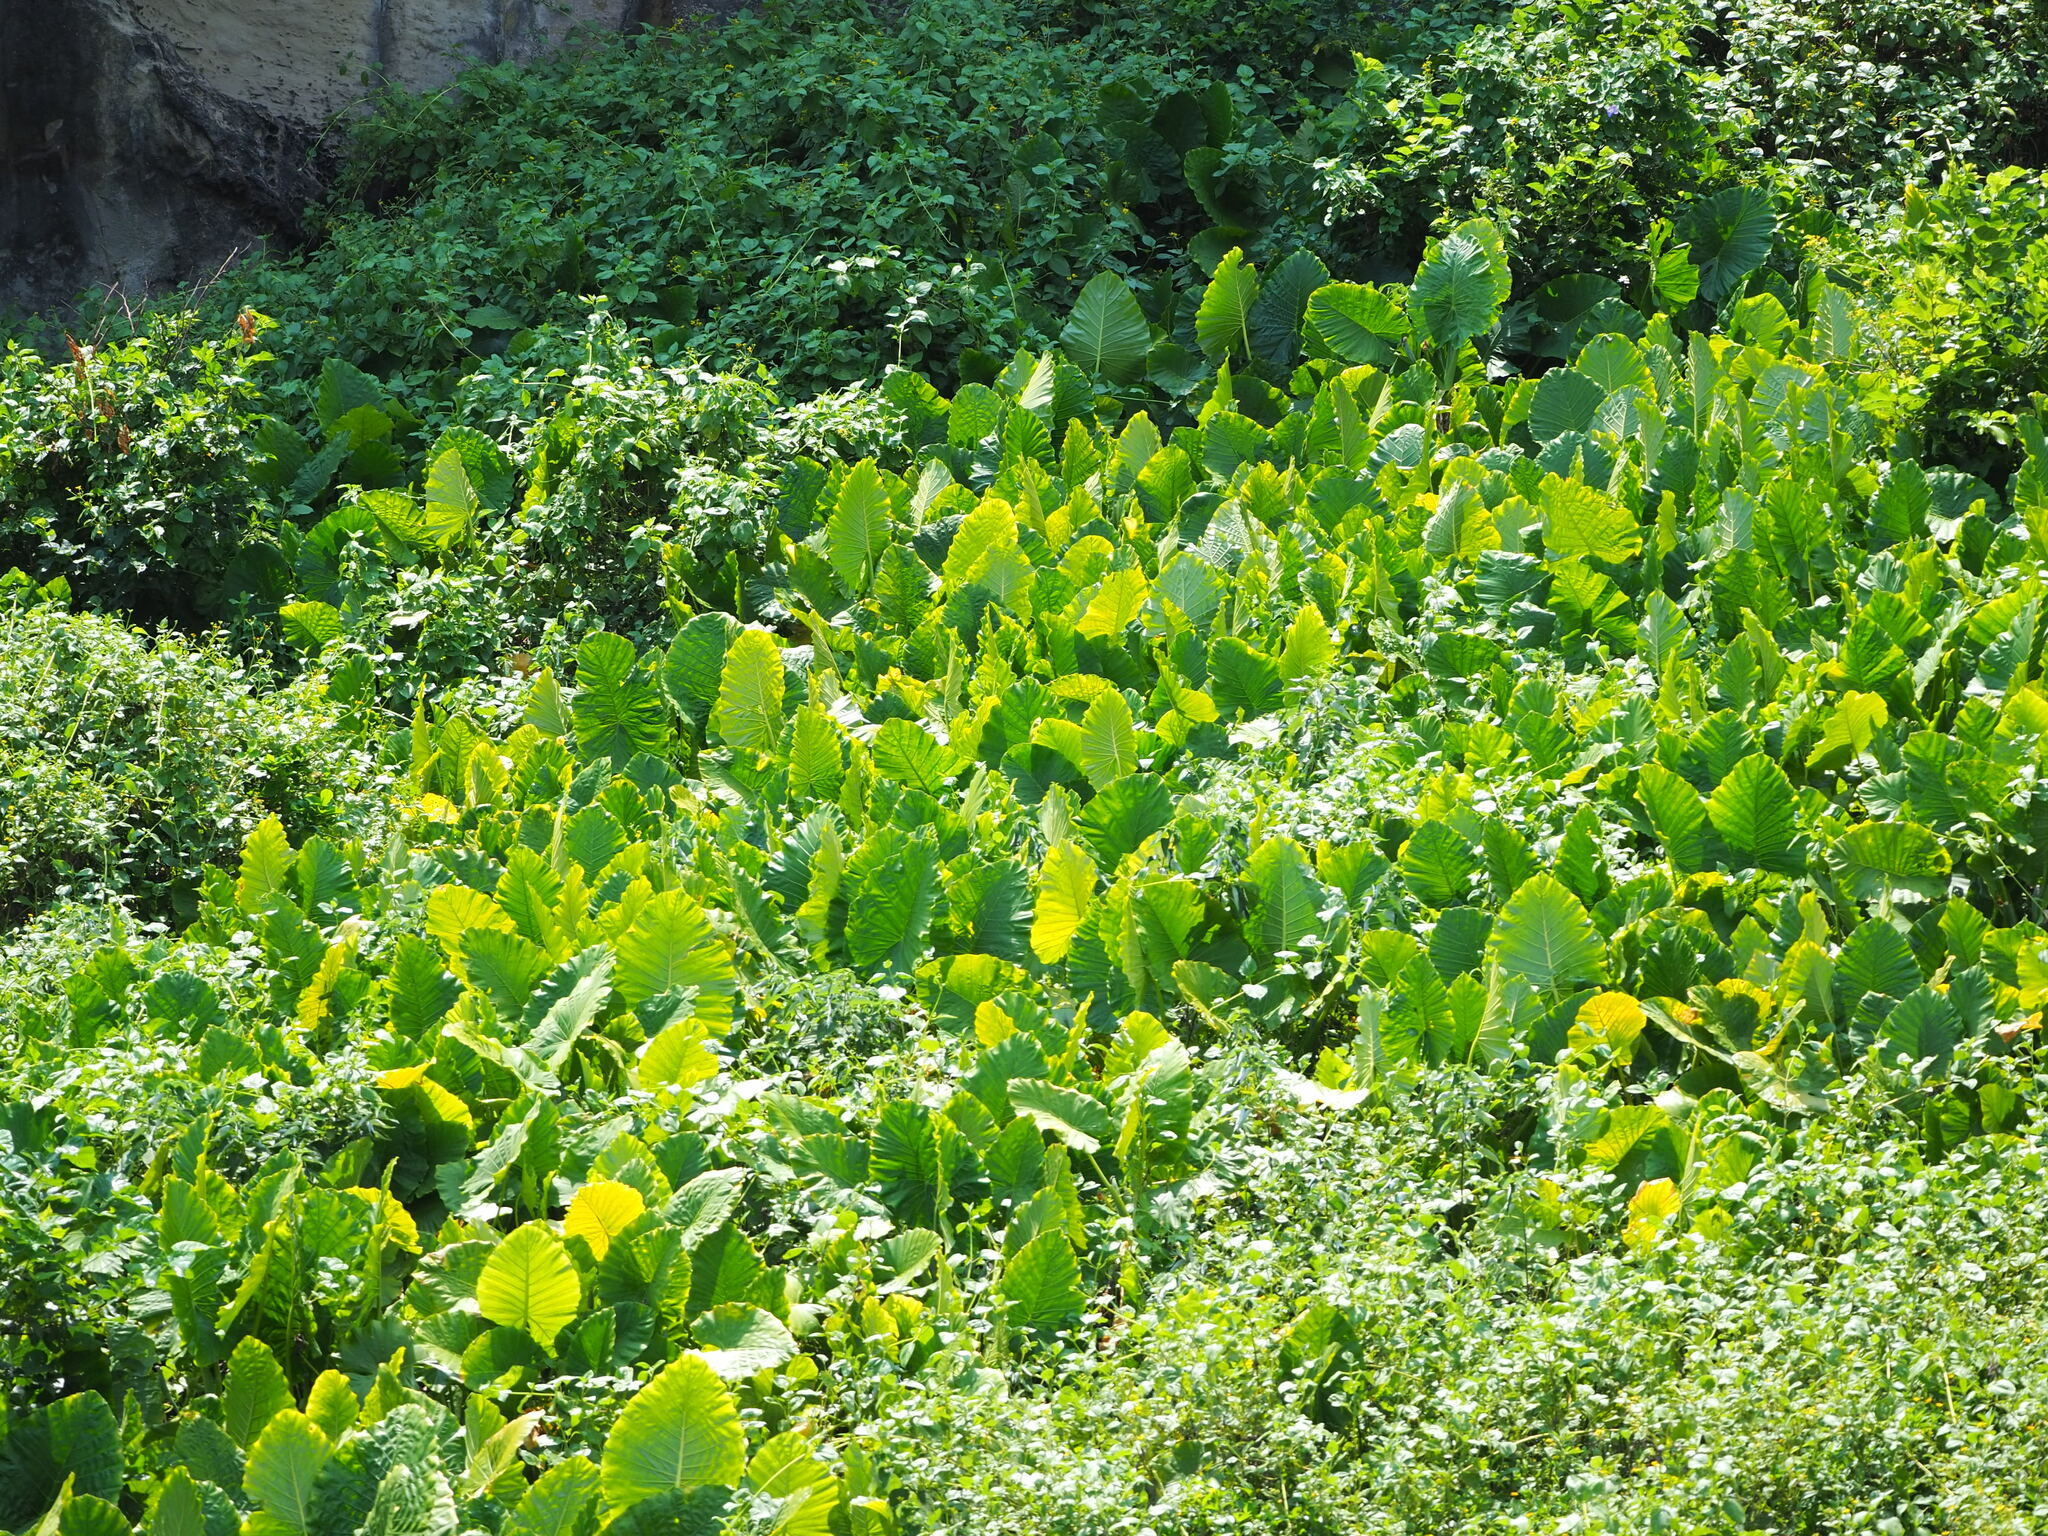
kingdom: Plantae
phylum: Tracheophyta
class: Liliopsida
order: Alismatales
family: Araceae
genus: Alocasia
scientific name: Alocasia odora
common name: Asian taro
